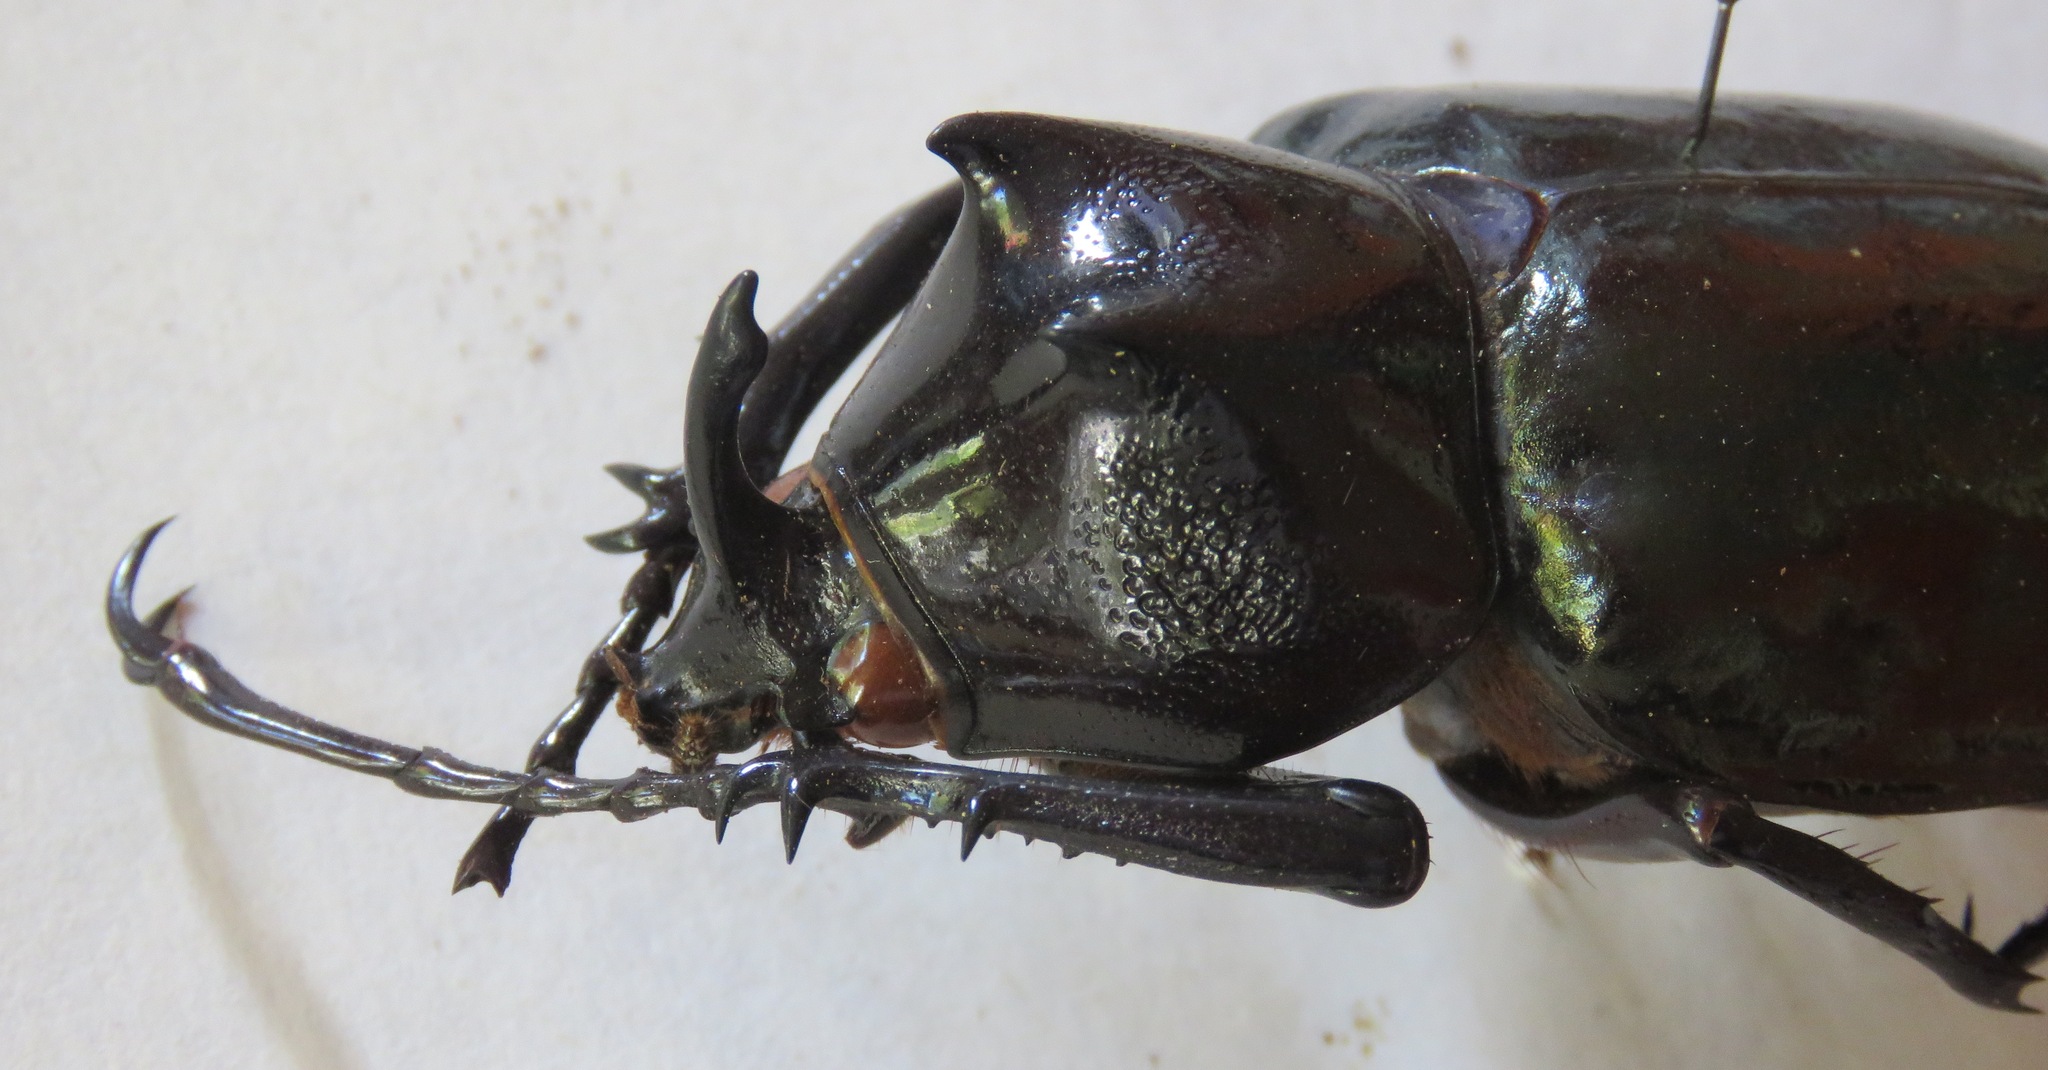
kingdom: Animalia
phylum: Arthropoda
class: Insecta
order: Coleoptera
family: Scarabaeidae
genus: Chalcosoma
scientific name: Chalcosoma chiron
